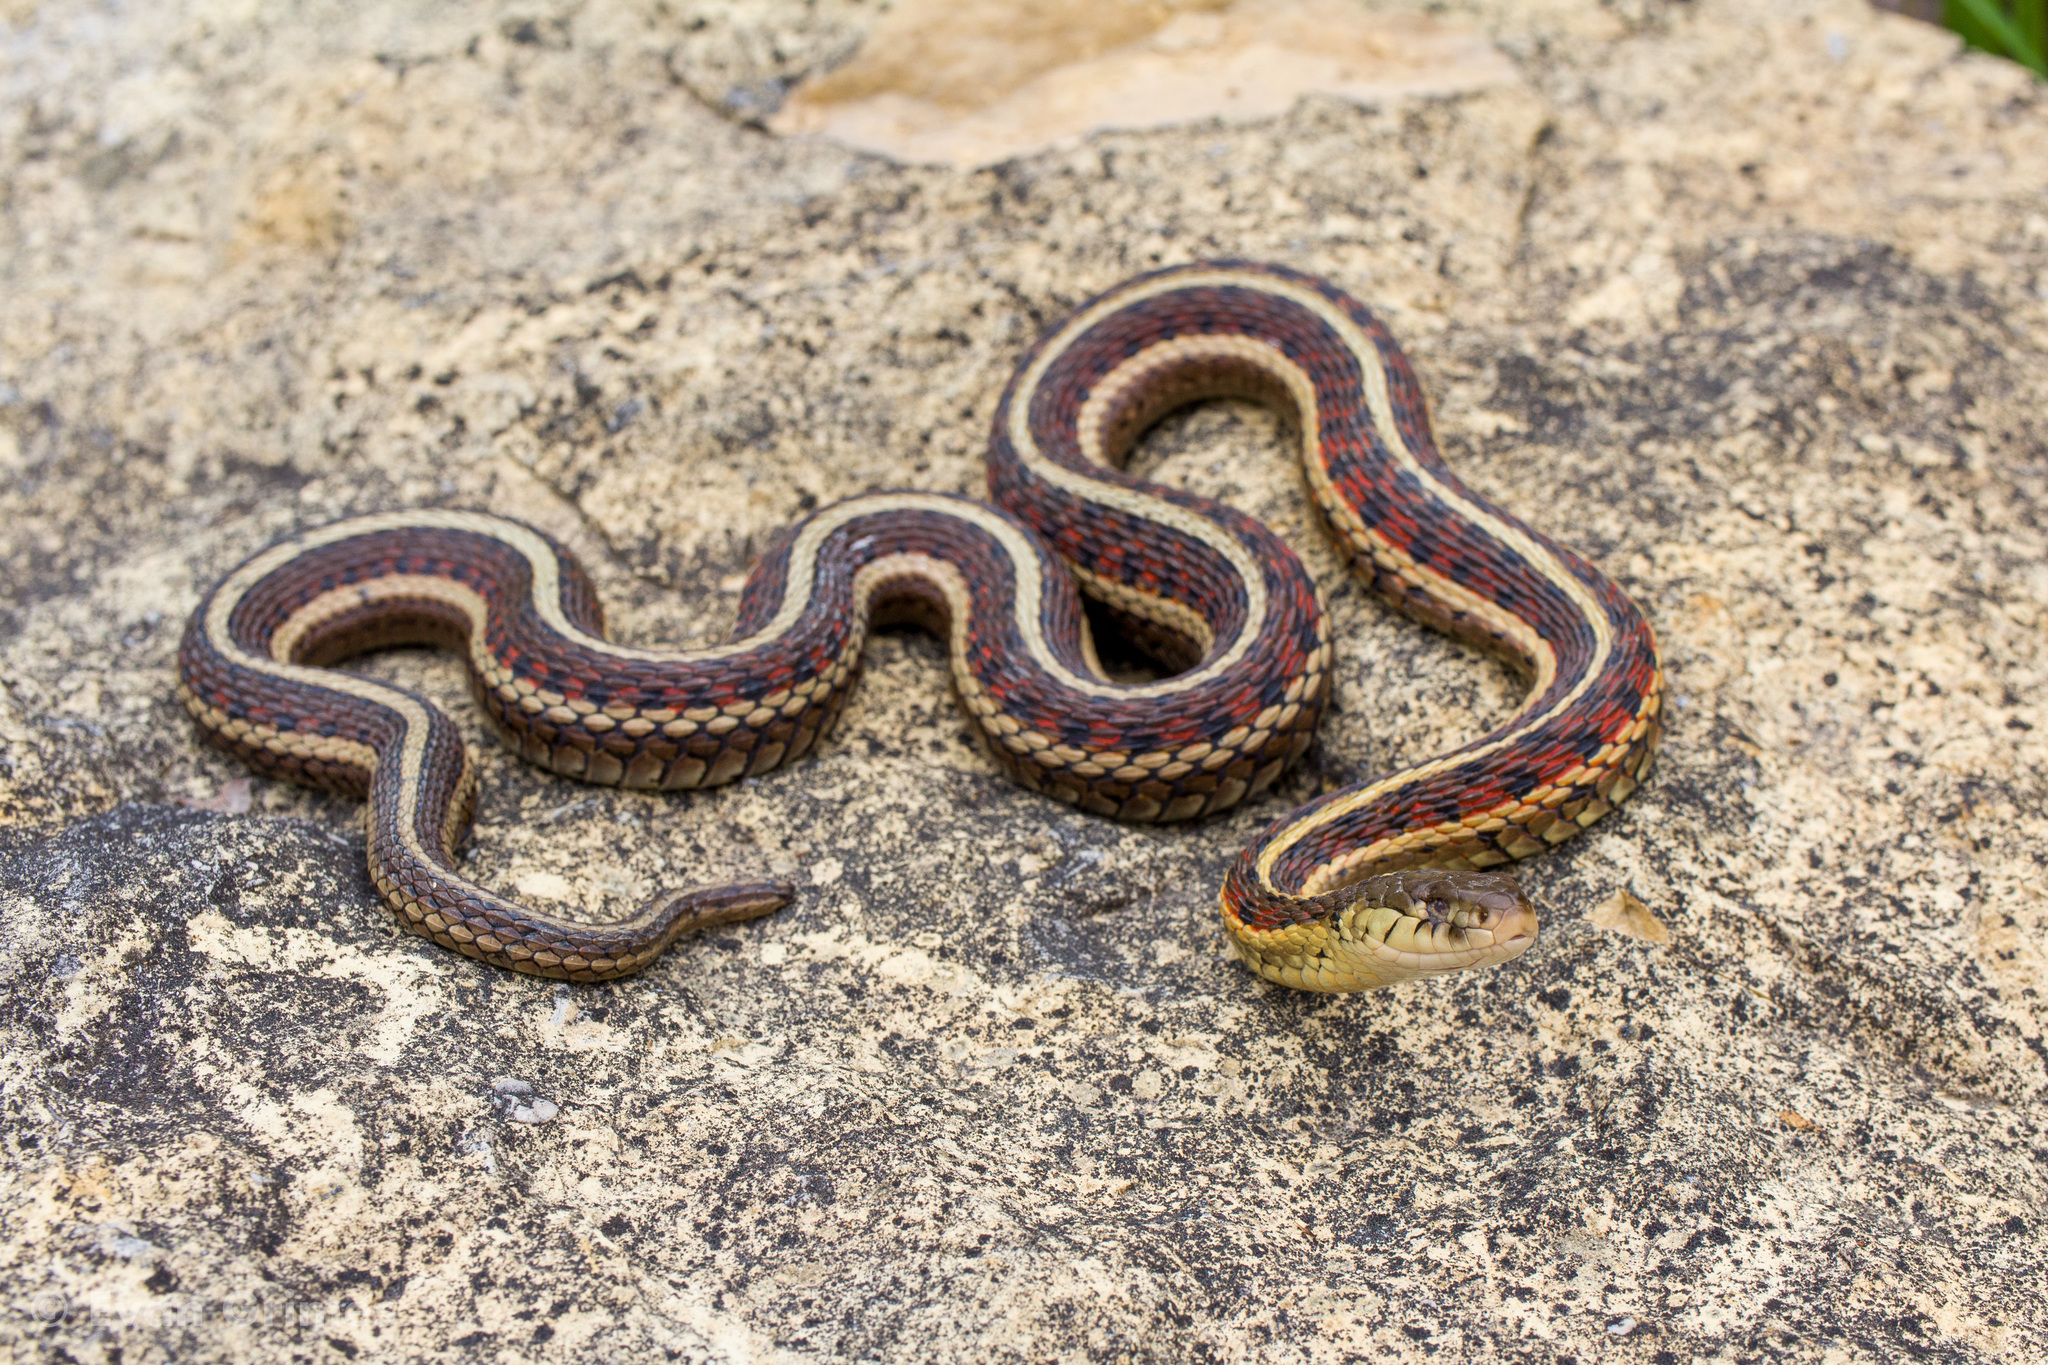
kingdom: Animalia
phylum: Chordata
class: Squamata
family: Colubridae
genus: Thamnophis
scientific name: Thamnophis sirtalis
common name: Common garter snake
